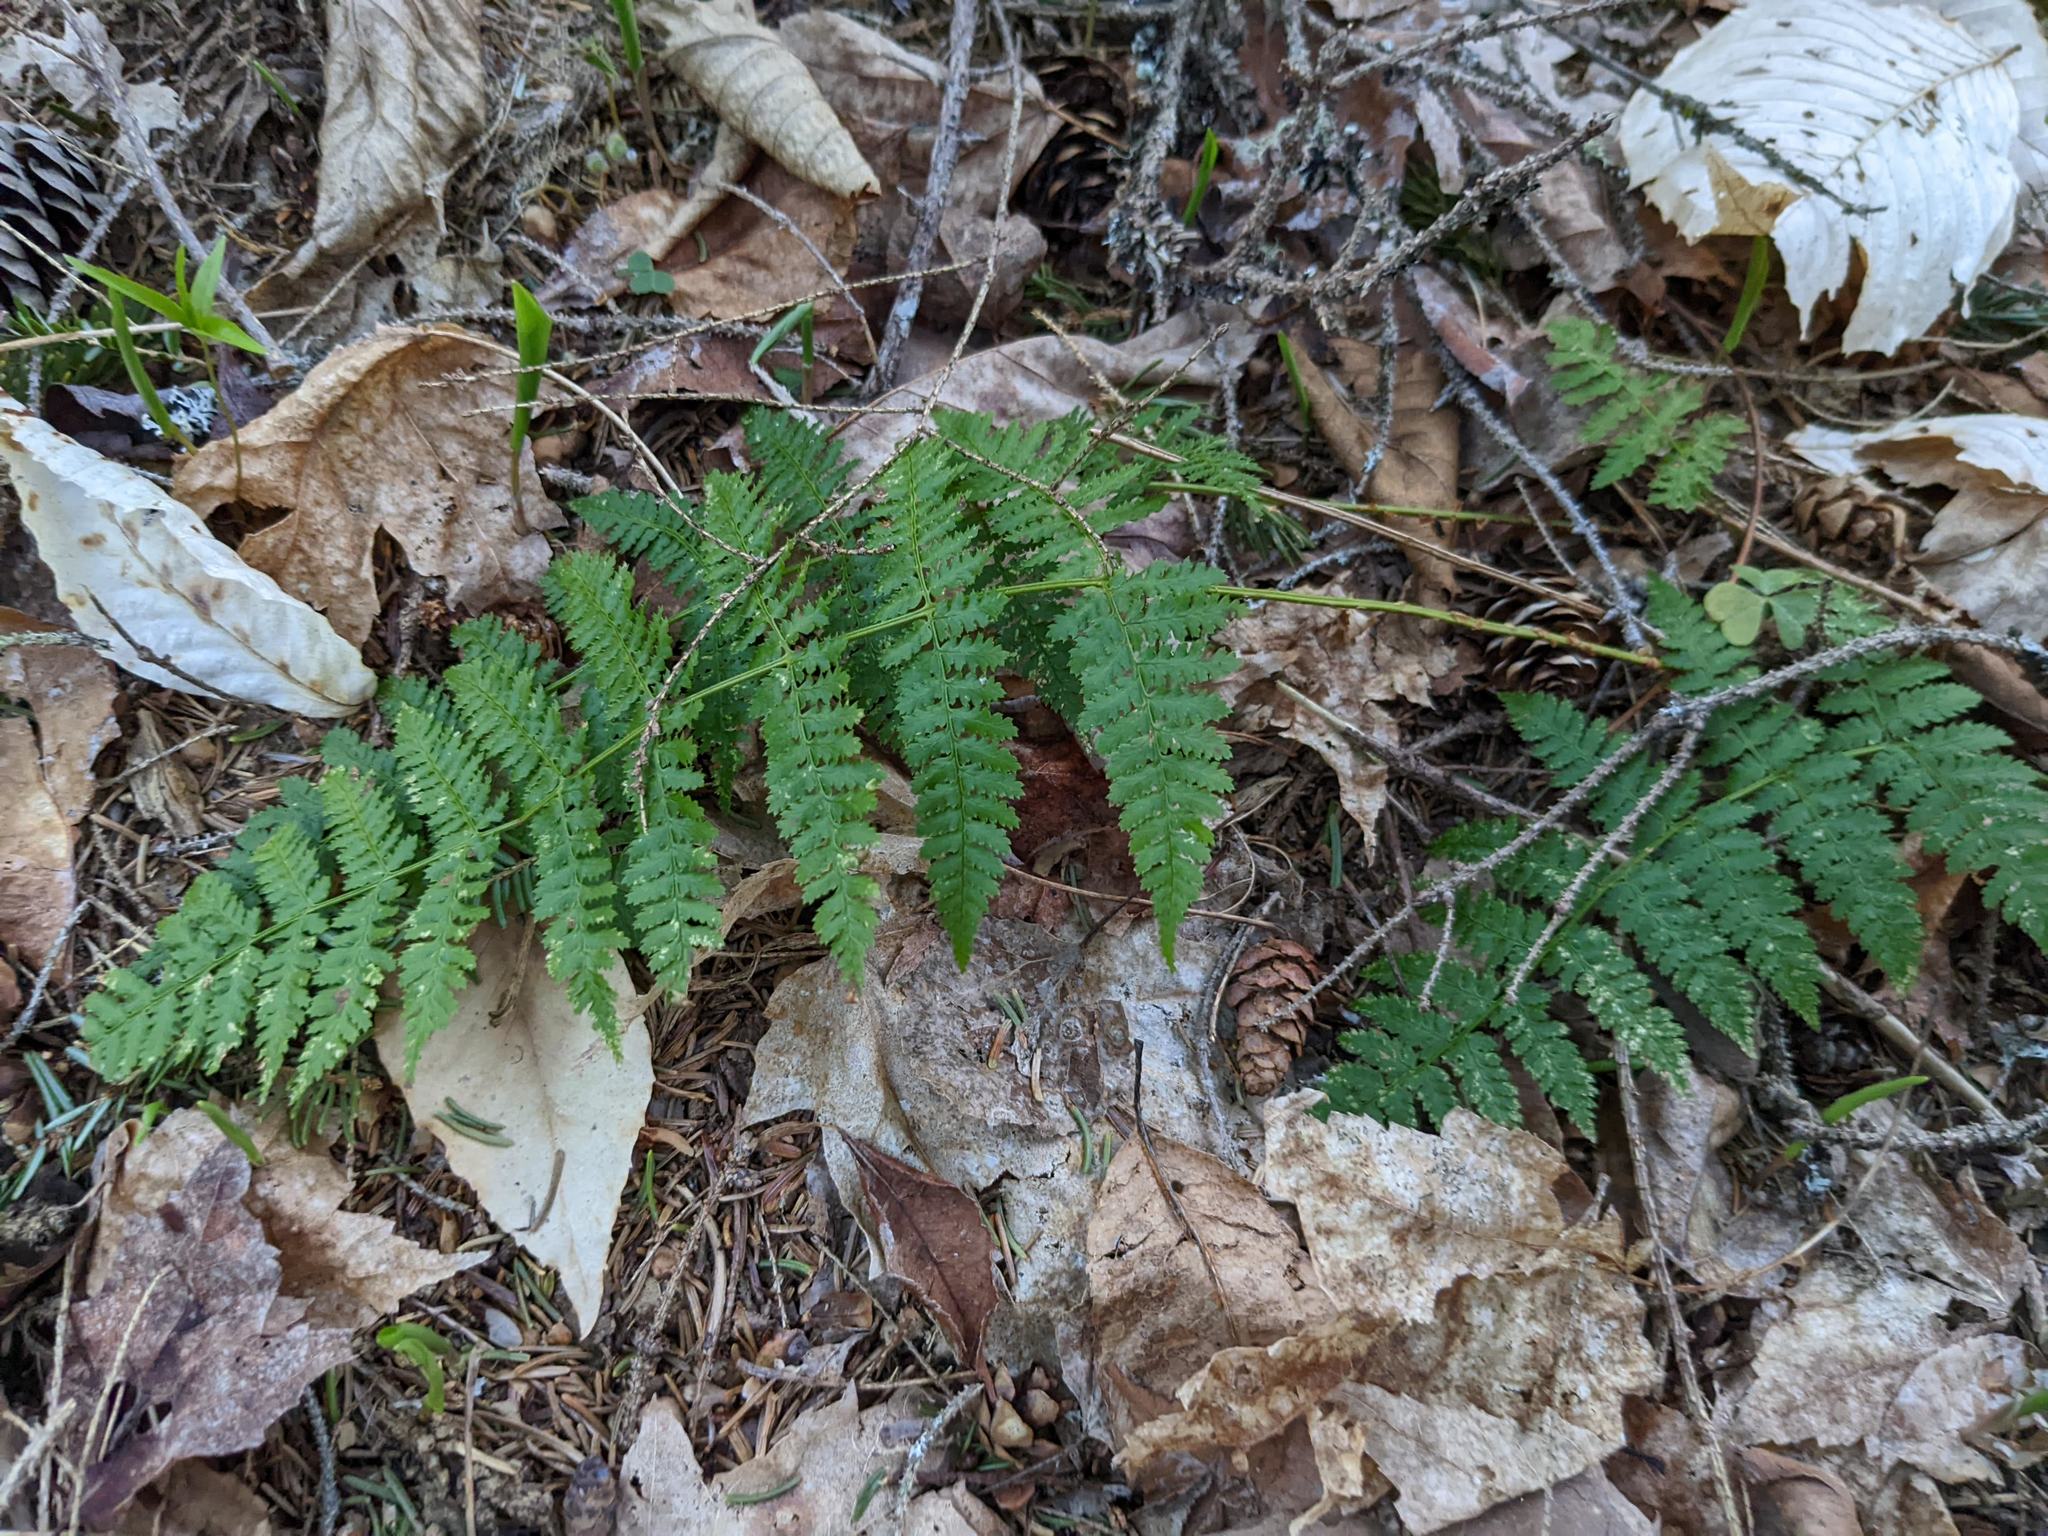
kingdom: Plantae
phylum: Tracheophyta
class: Polypodiopsida
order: Polypodiales
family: Dryopteridaceae
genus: Dryopteris
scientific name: Dryopteris intermedia
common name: Evergreen wood fern
